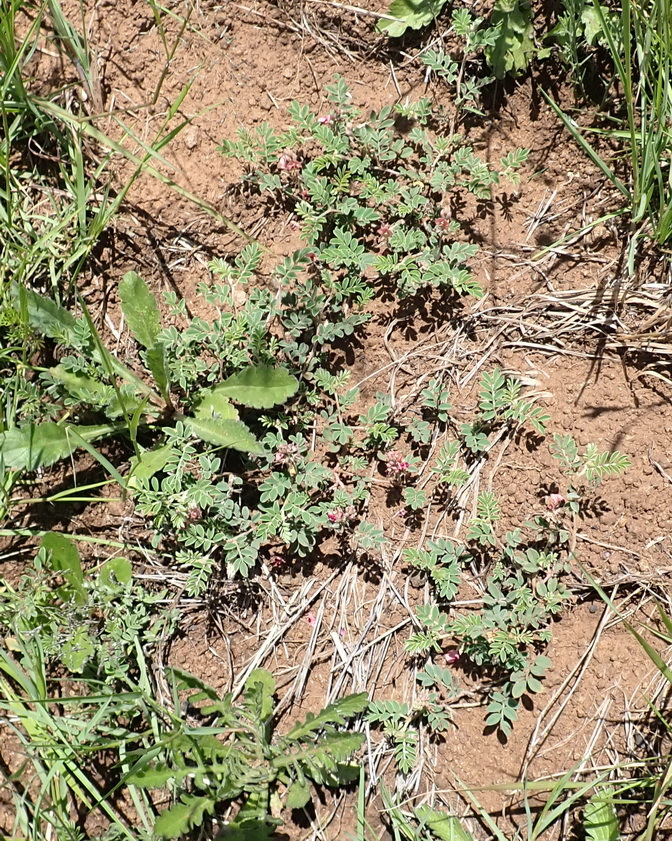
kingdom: Plantae
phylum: Tracheophyta
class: Magnoliopsida
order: Fabales
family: Fabaceae
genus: Indigofera
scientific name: Indigofera alternans
